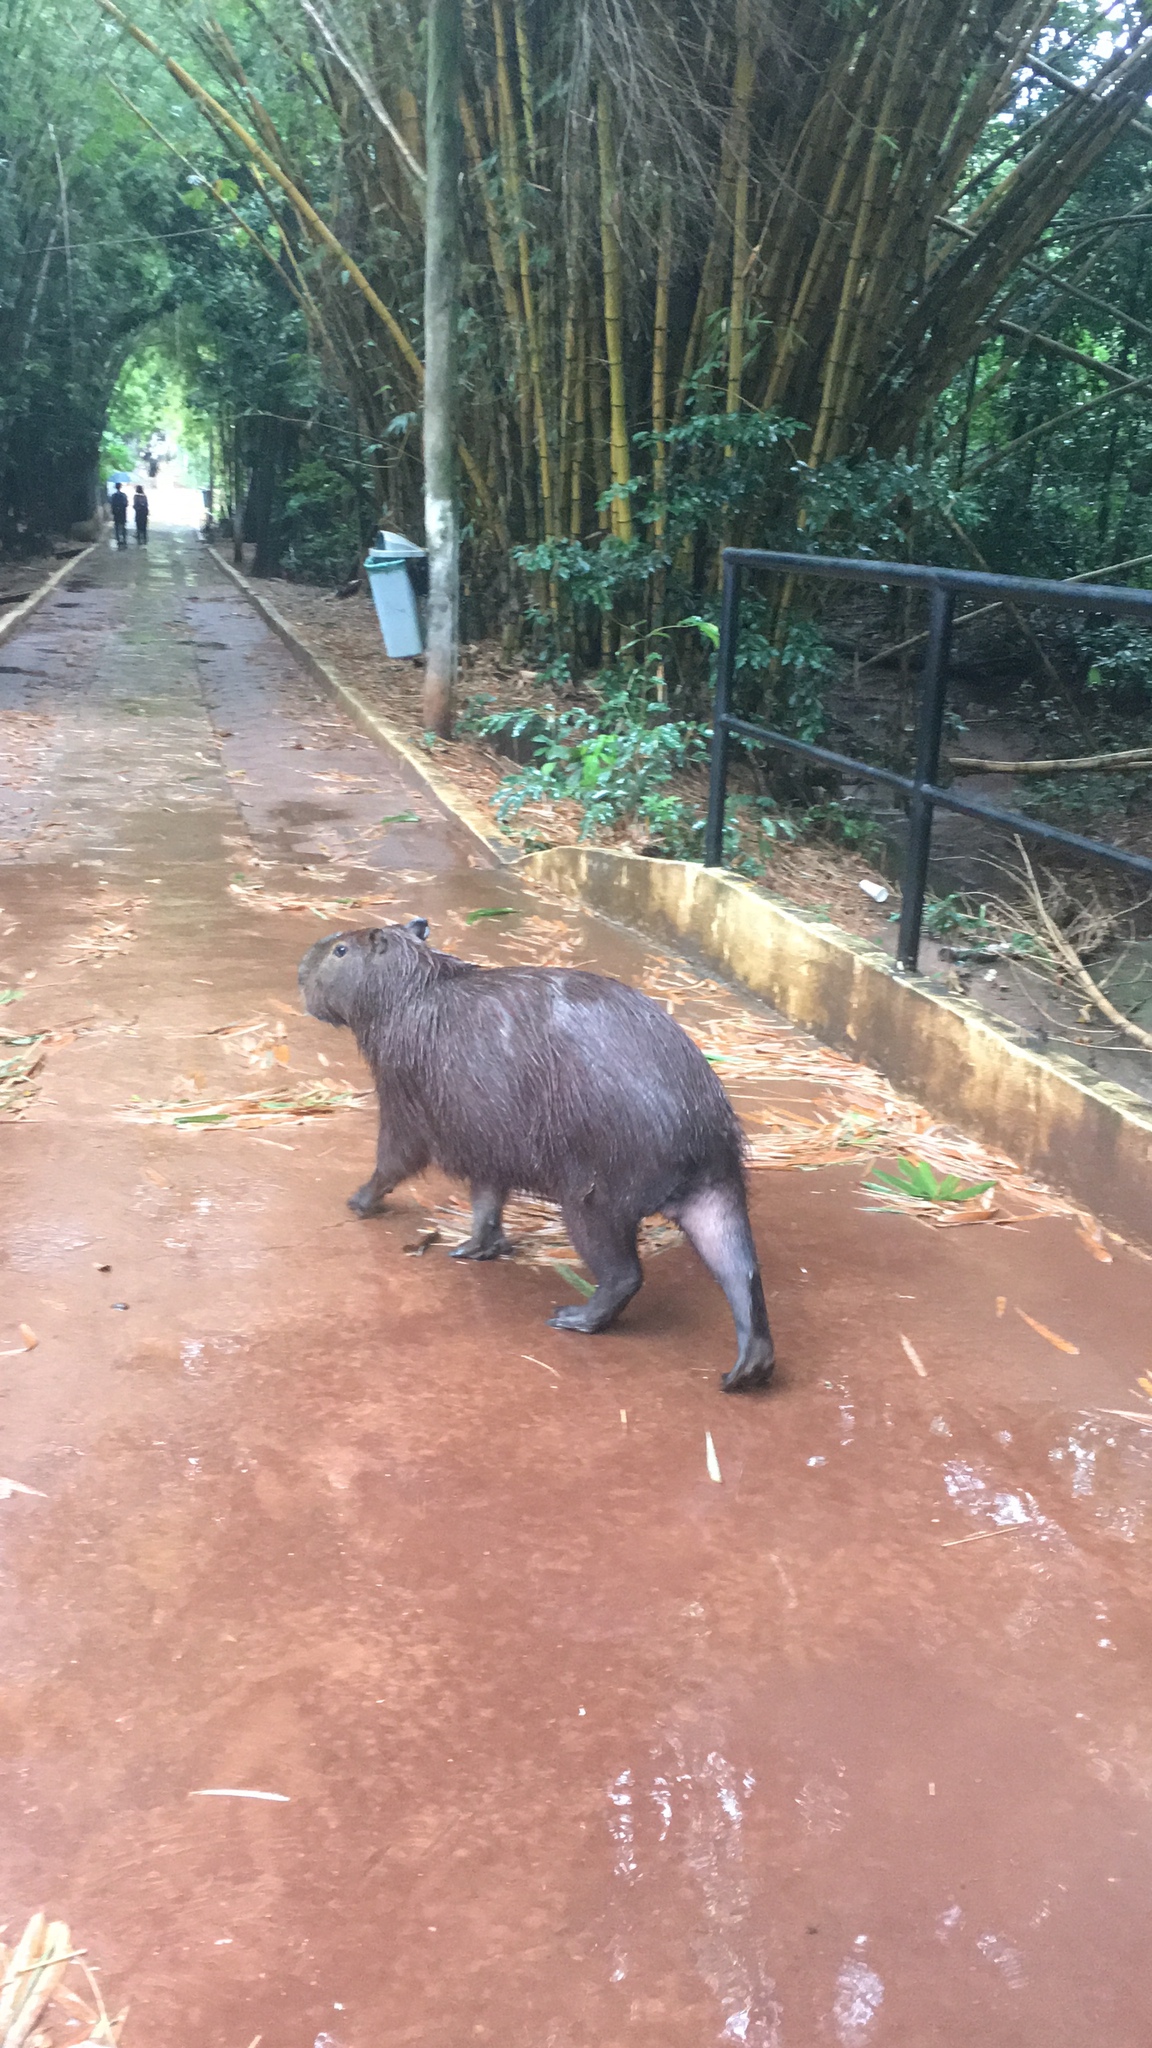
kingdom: Animalia
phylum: Chordata
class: Mammalia
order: Rodentia
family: Caviidae
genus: Hydrochoerus
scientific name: Hydrochoerus hydrochaeris
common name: Capybara
